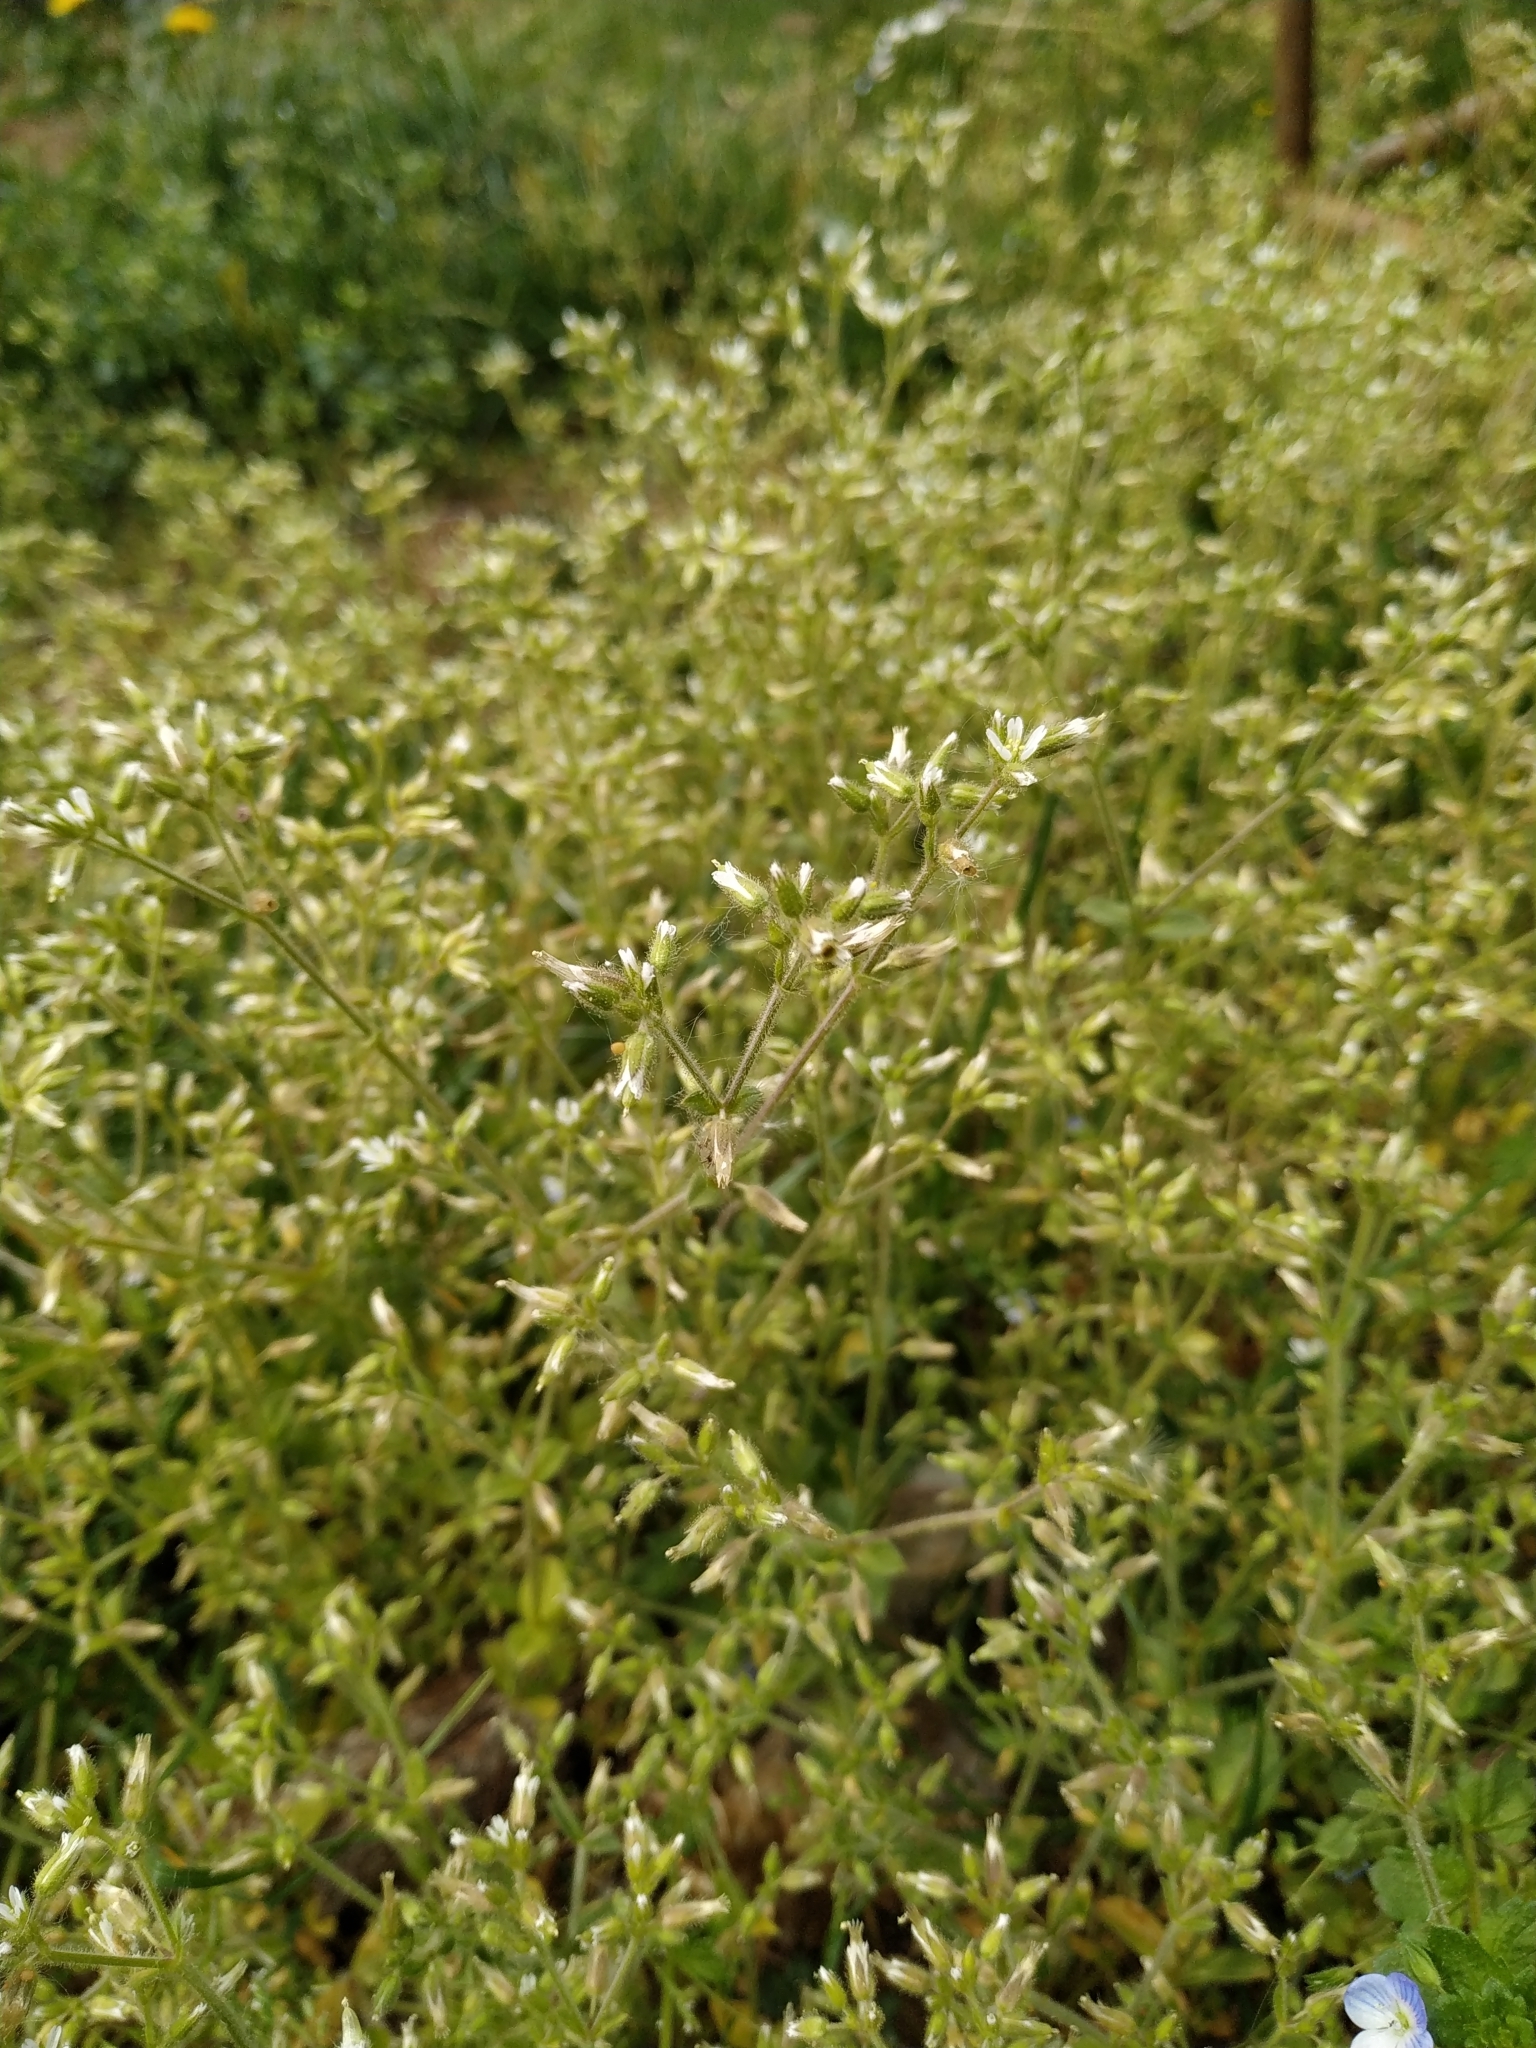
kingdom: Plantae
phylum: Tracheophyta
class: Magnoliopsida
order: Caryophyllales
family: Caryophyllaceae
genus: Cerastium
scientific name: Cerastium glomeratum
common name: Sticky chickweed
